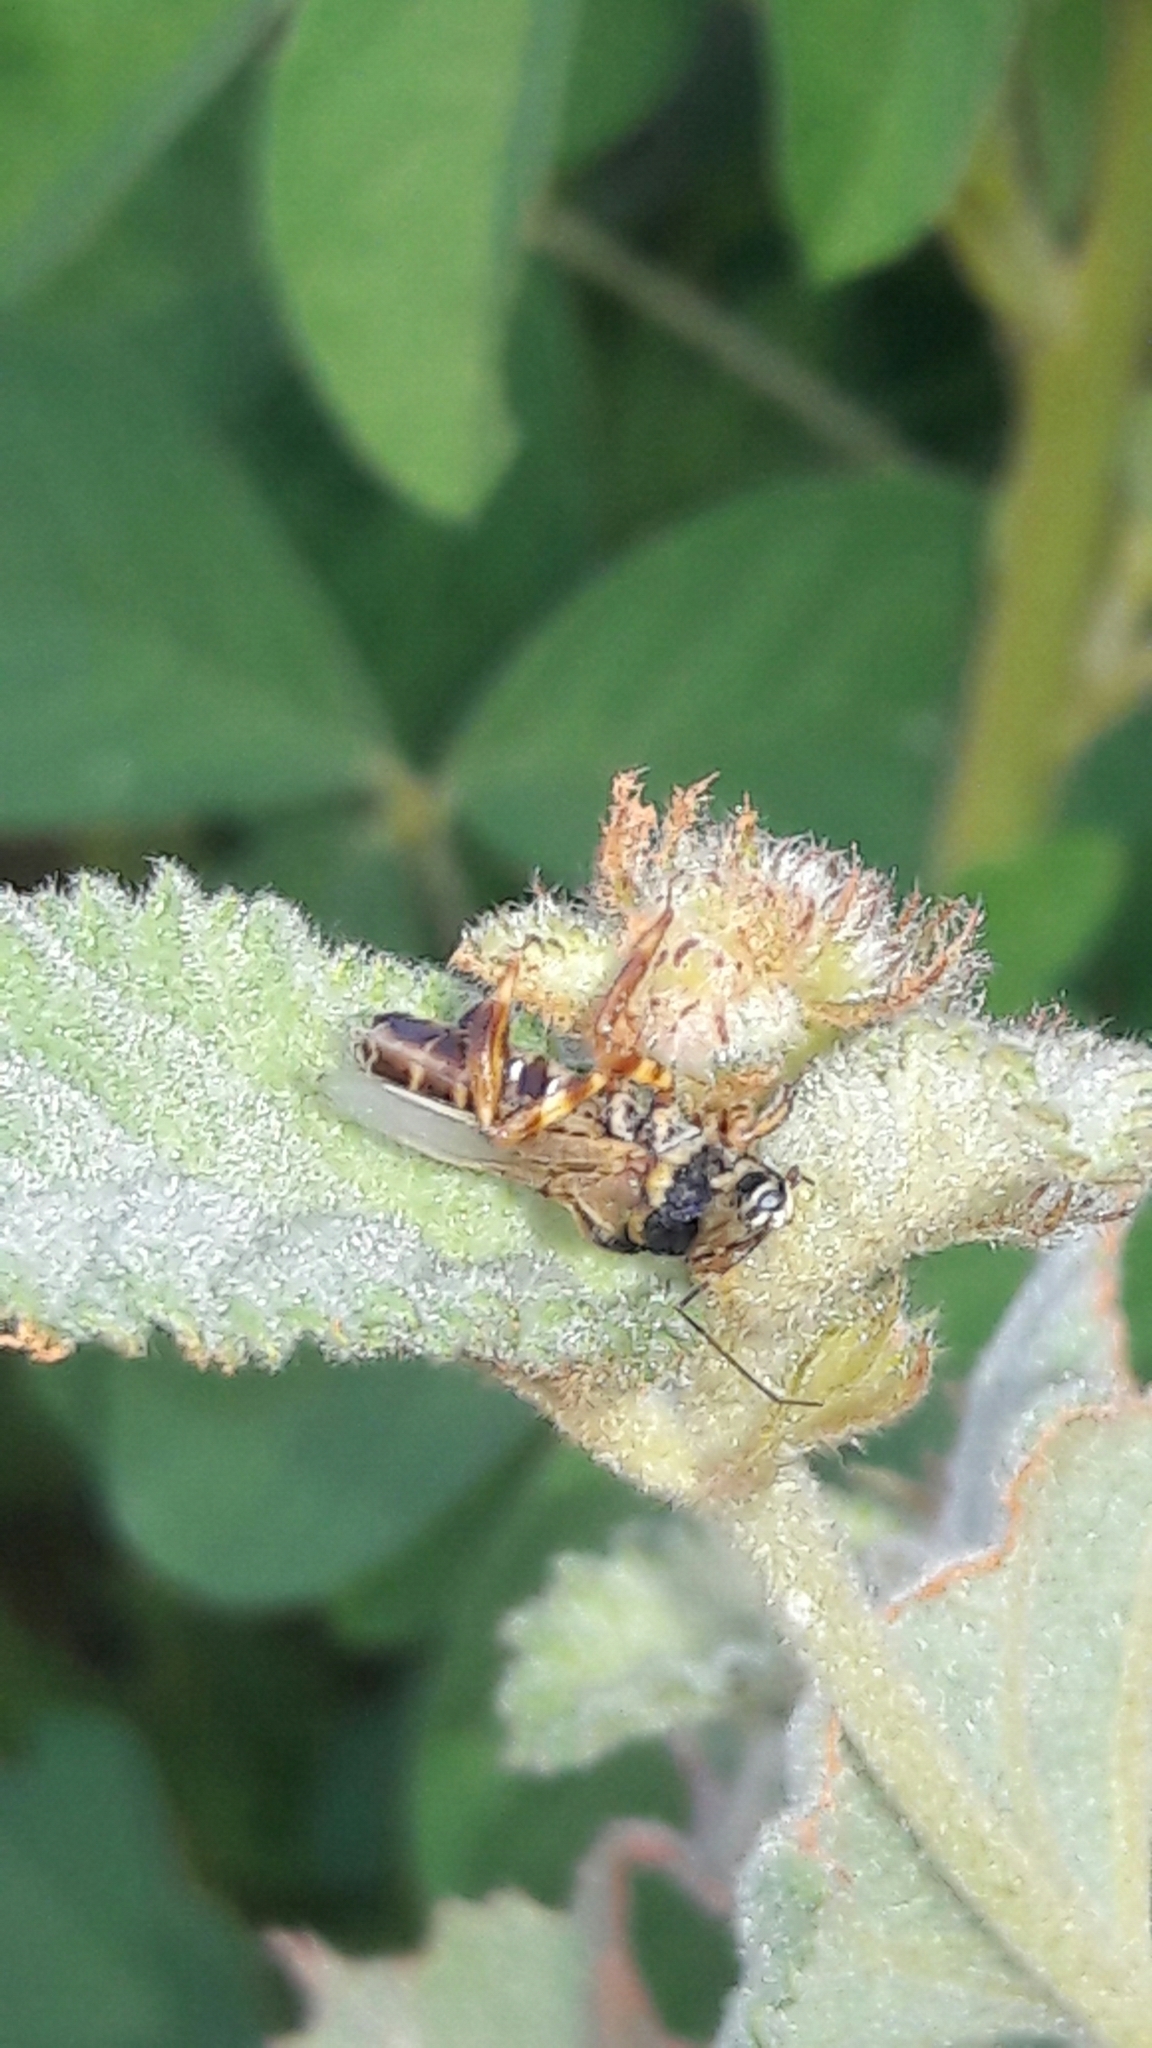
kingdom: Animalia
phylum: Arthropoda
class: Insecta
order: Hemiptera
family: Reduviidae
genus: Notocyrtus
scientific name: Notocyrtus dorsalis
